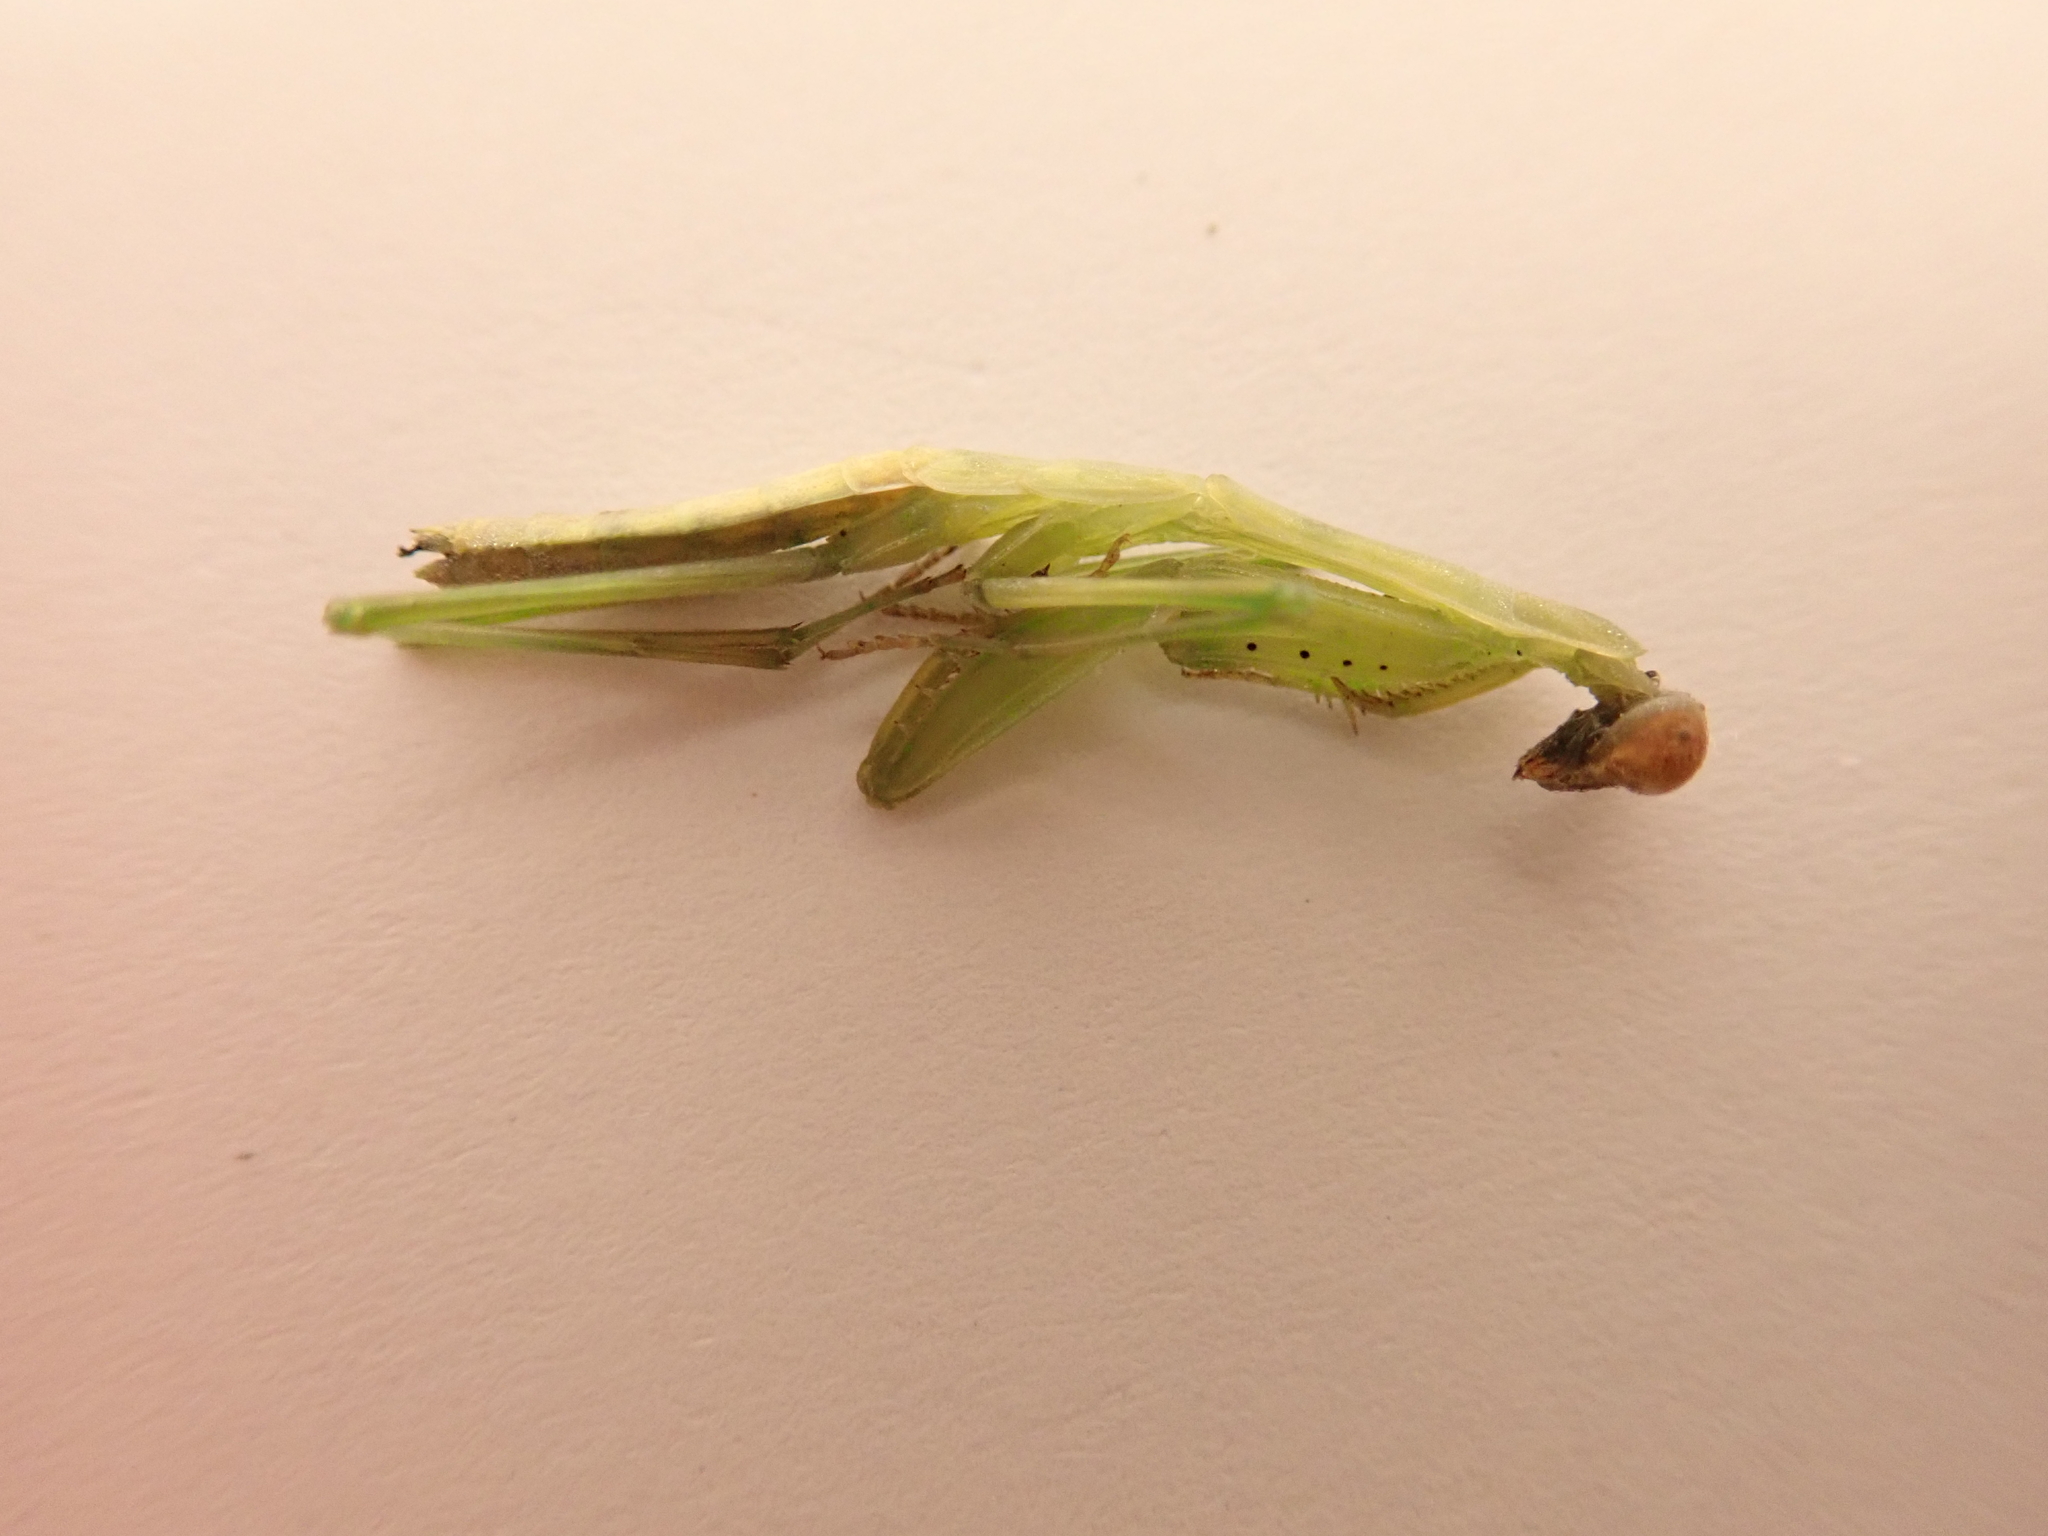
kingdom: Animalia
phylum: Arthropoda
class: Insecta
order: Mantodea
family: Miomantidae
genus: Miomantis
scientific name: Miomantis caffra
